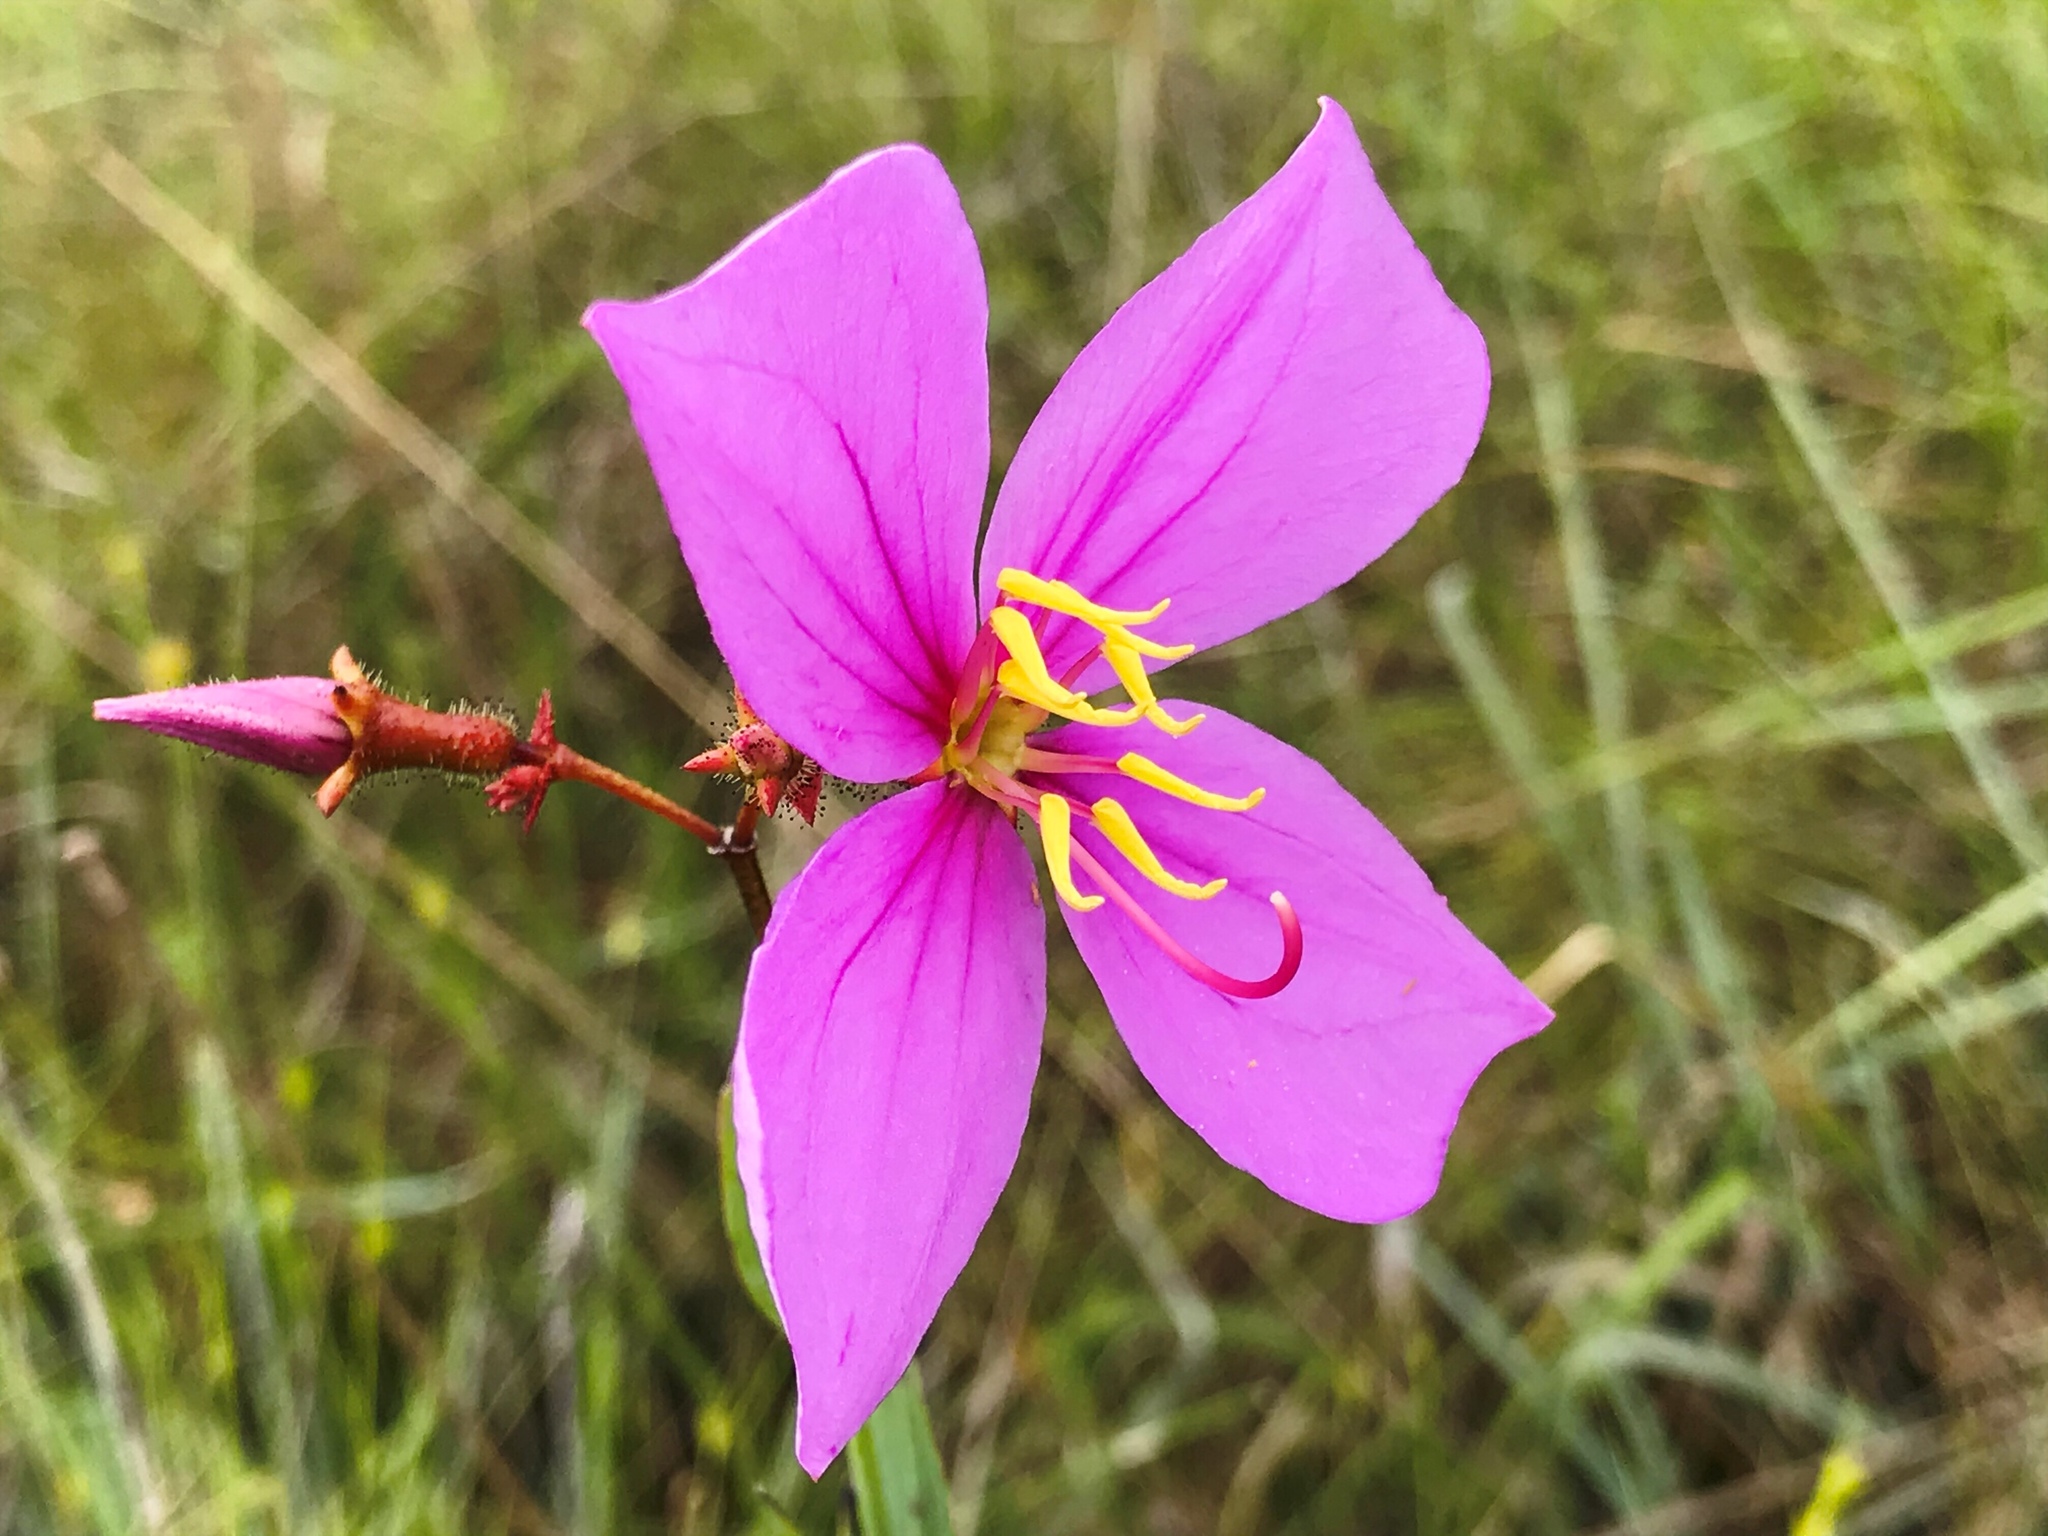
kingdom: Plantae
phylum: Tracheophyta
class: Magnoliopsida
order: Myrtales
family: Melastomataceae
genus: Rhexia
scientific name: Rhexia alifanus
